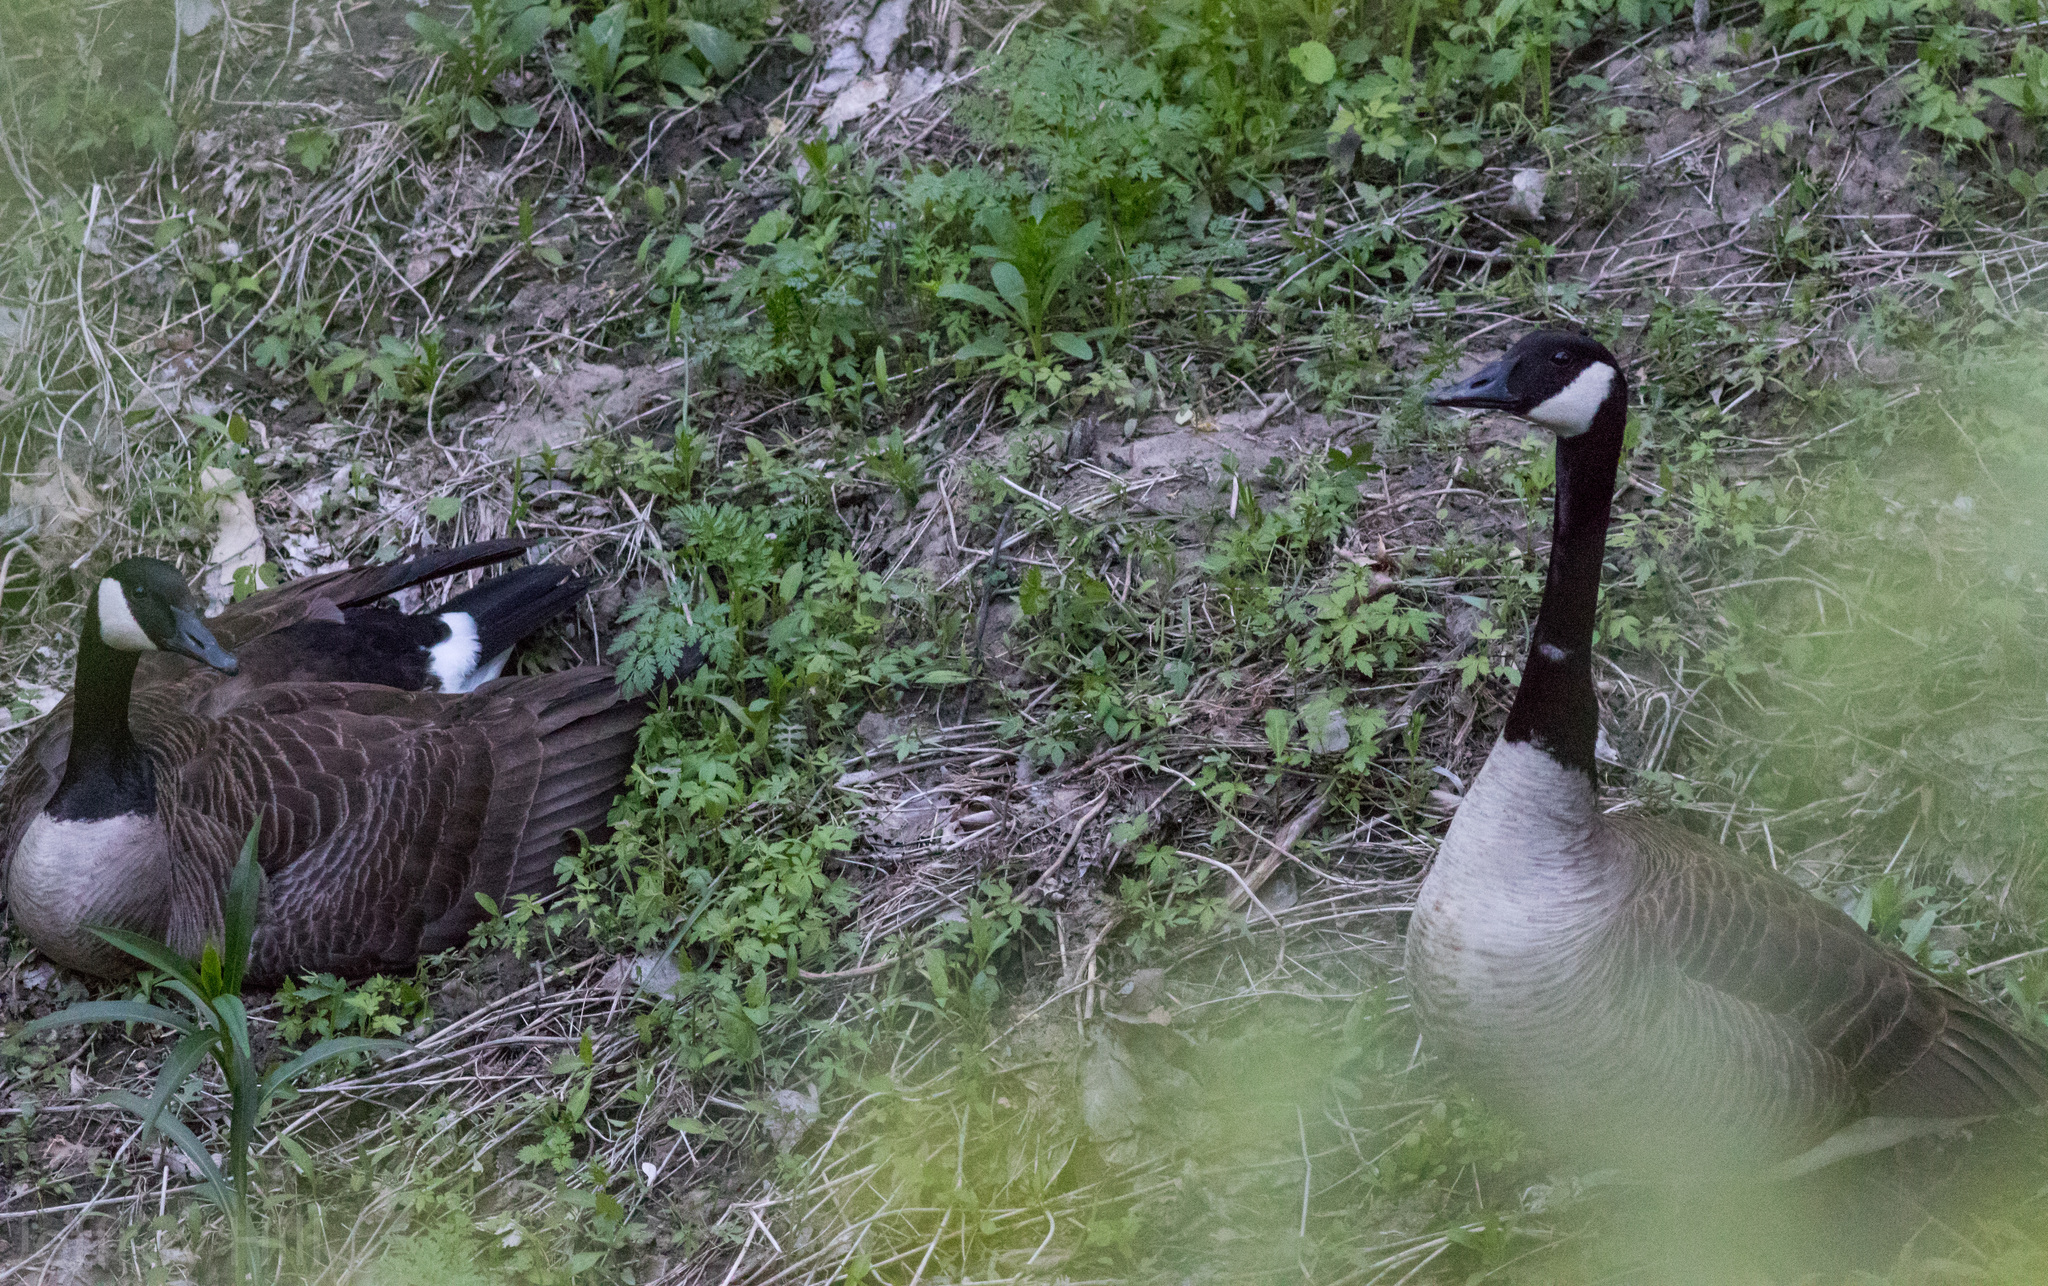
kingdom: Animalia
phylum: Chordata
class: Aves
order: Anseriformes
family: Anatidae
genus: Branta
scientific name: Branta canadensis
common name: Canada goose
